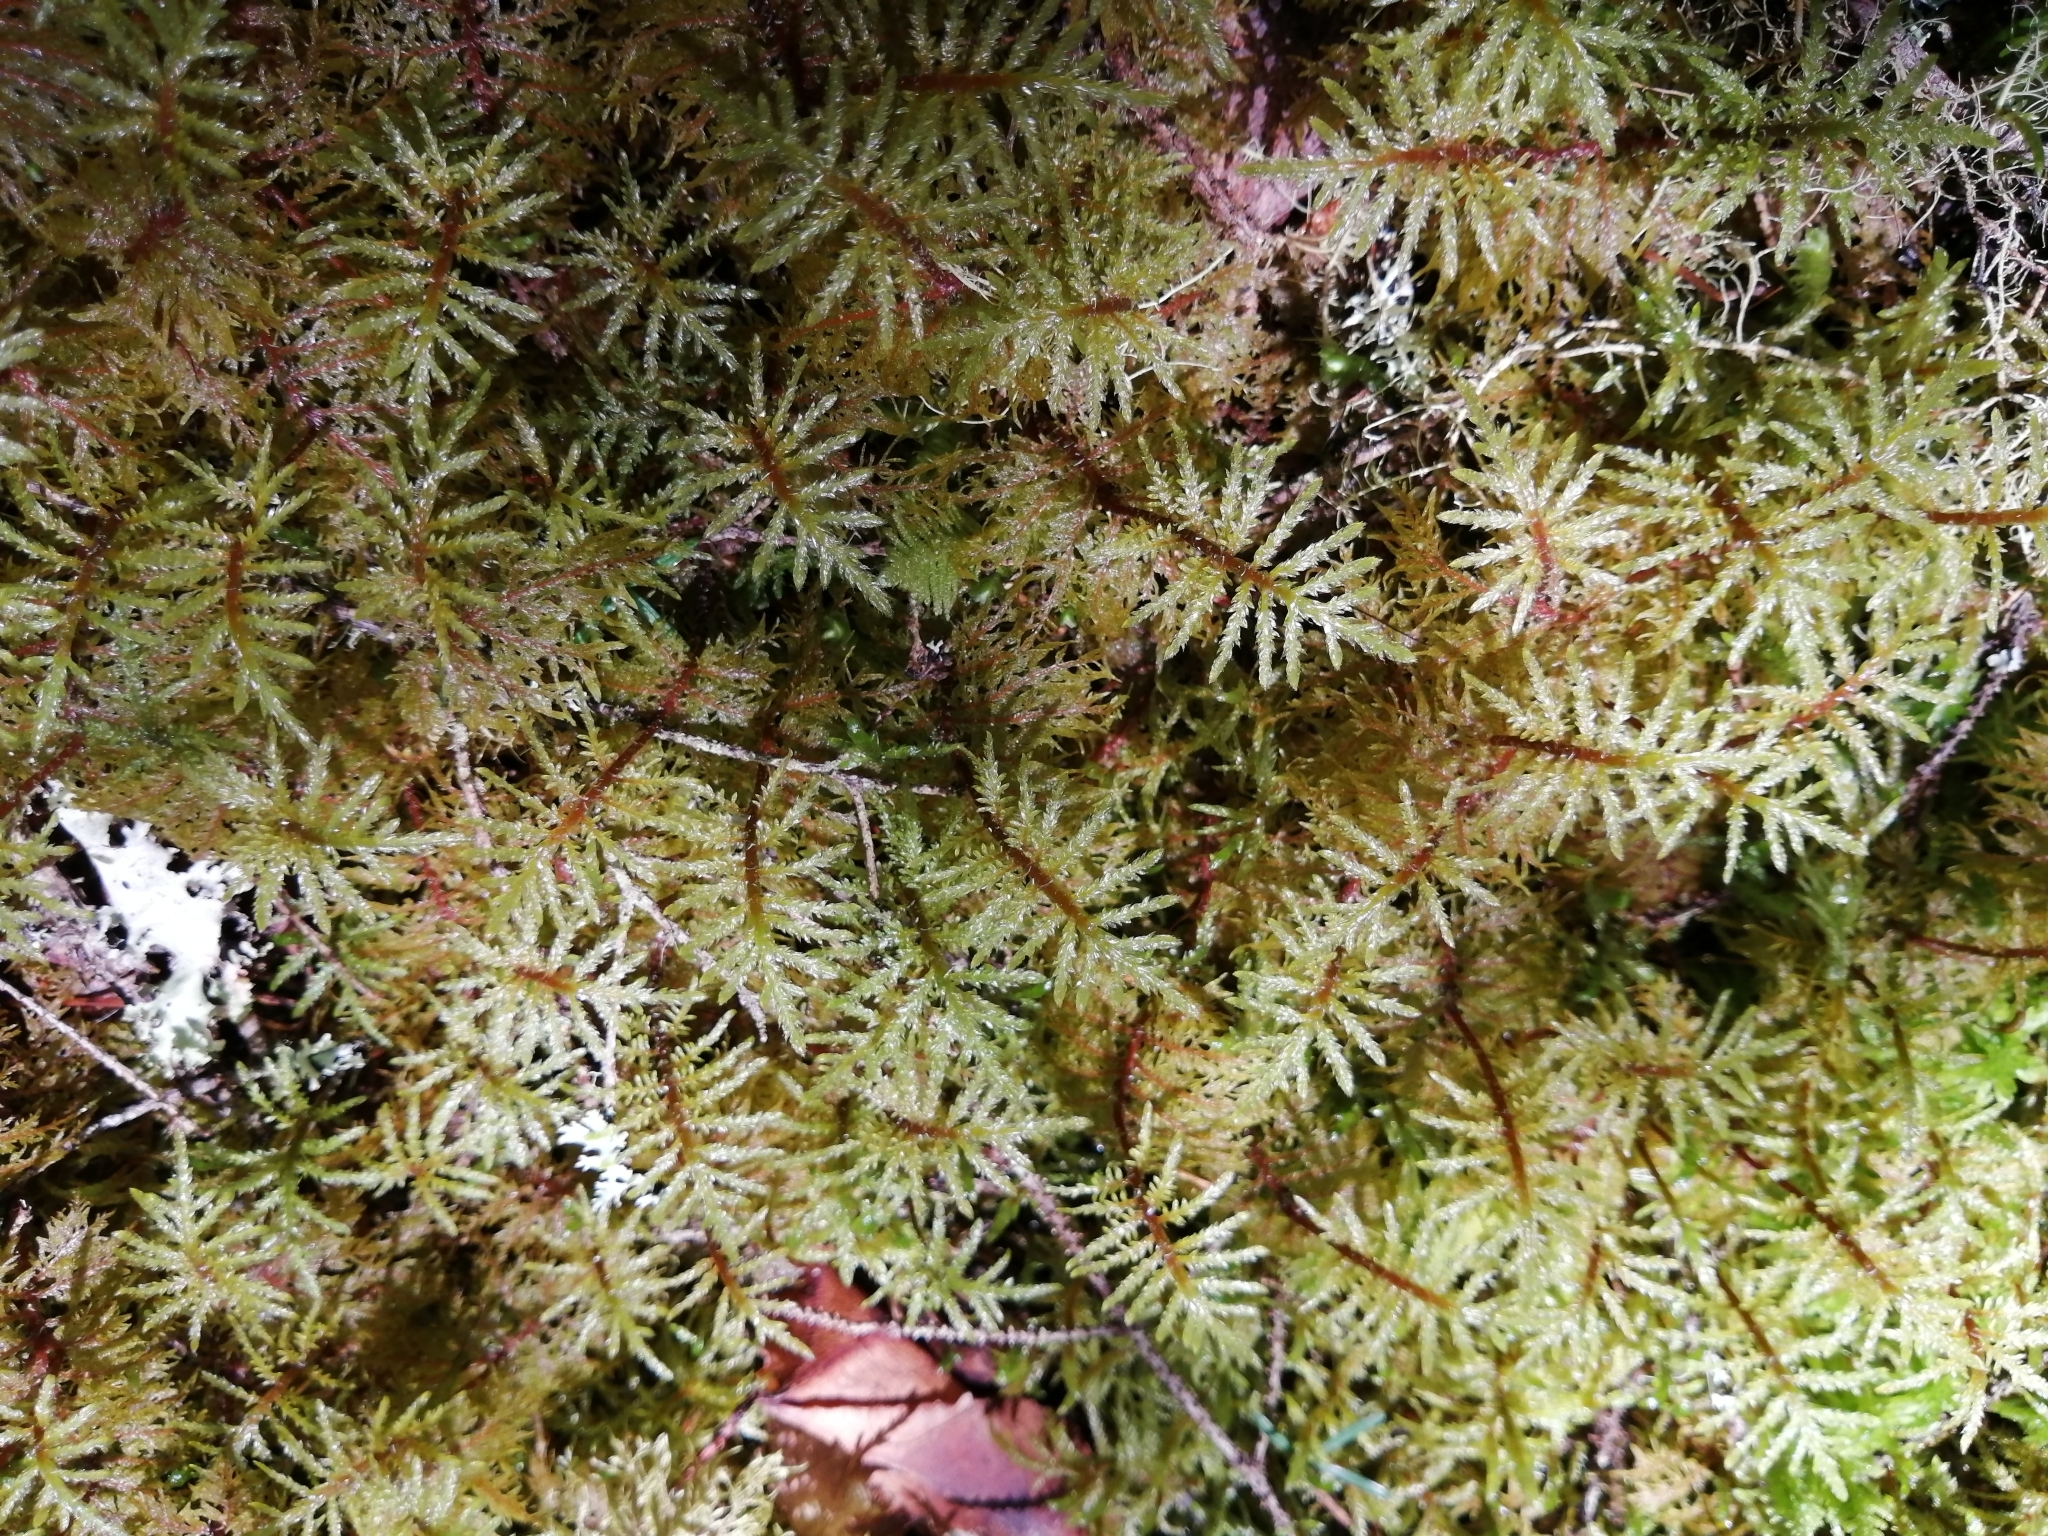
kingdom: Plantae
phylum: Bryophyta
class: Bryopsida
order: Hypnales
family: Hylocomiaceae
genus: Hylocomium
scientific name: Hylocomium splendens
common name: Stairstep moss
